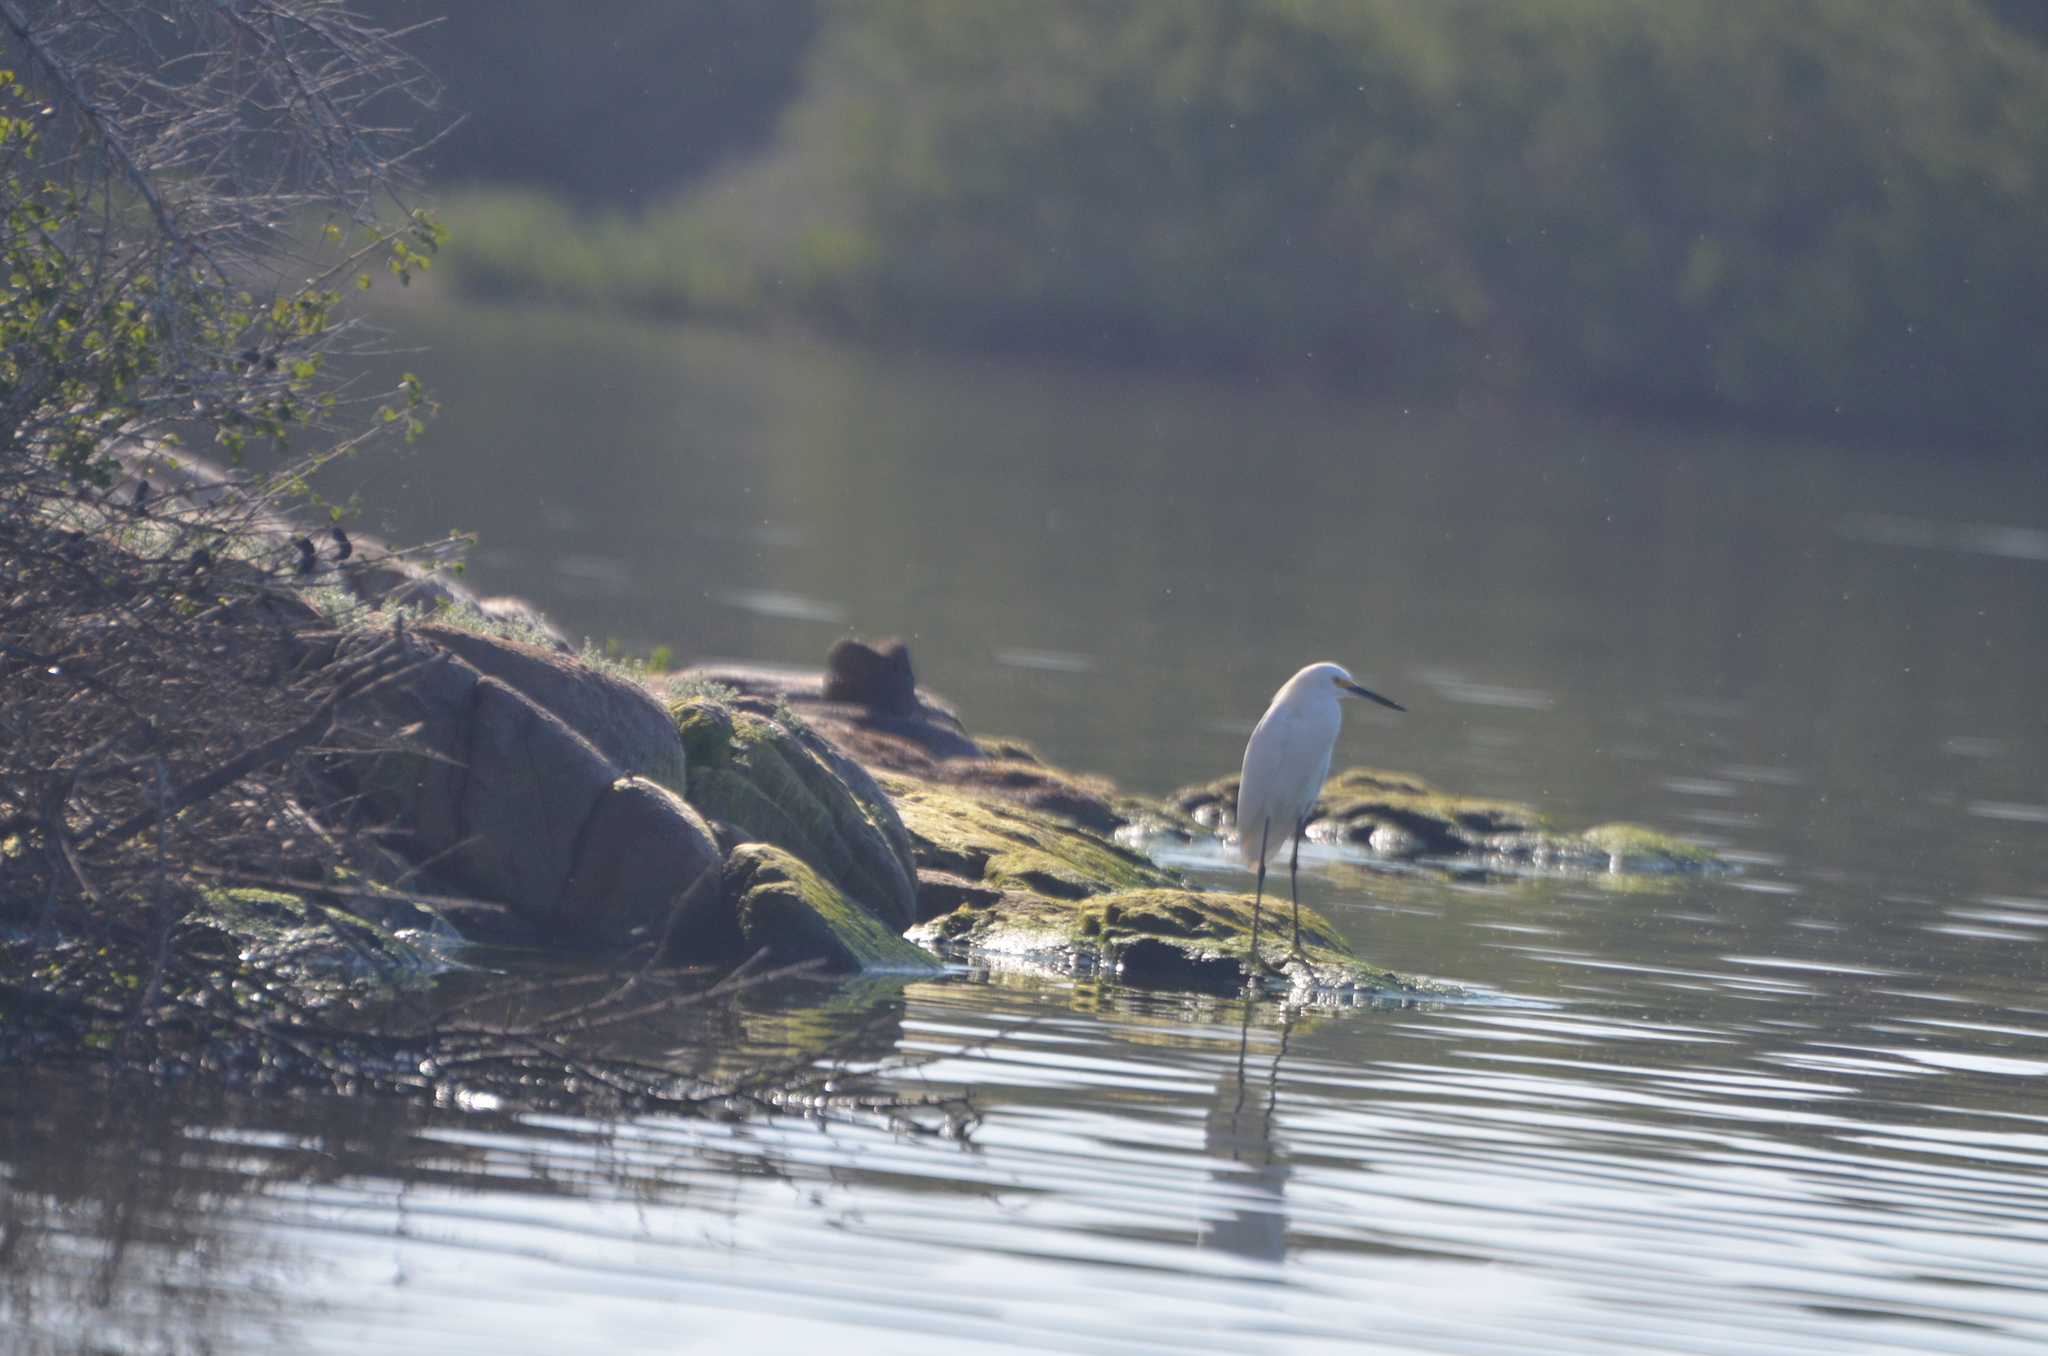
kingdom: Animalia
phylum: Chordata
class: Aves
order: Pelecaniformes
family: Ardeidae
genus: Egretta
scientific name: Egretta thula
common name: Snowy egret
